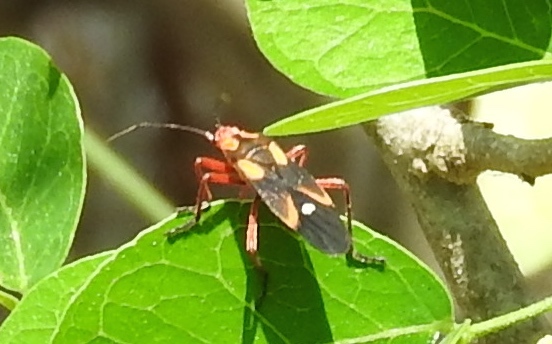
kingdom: Animalia
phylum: Arthropoda
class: Insecta
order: Hemiptera
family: Lygaeidae
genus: Oncopeltus
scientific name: Oncopeltus
